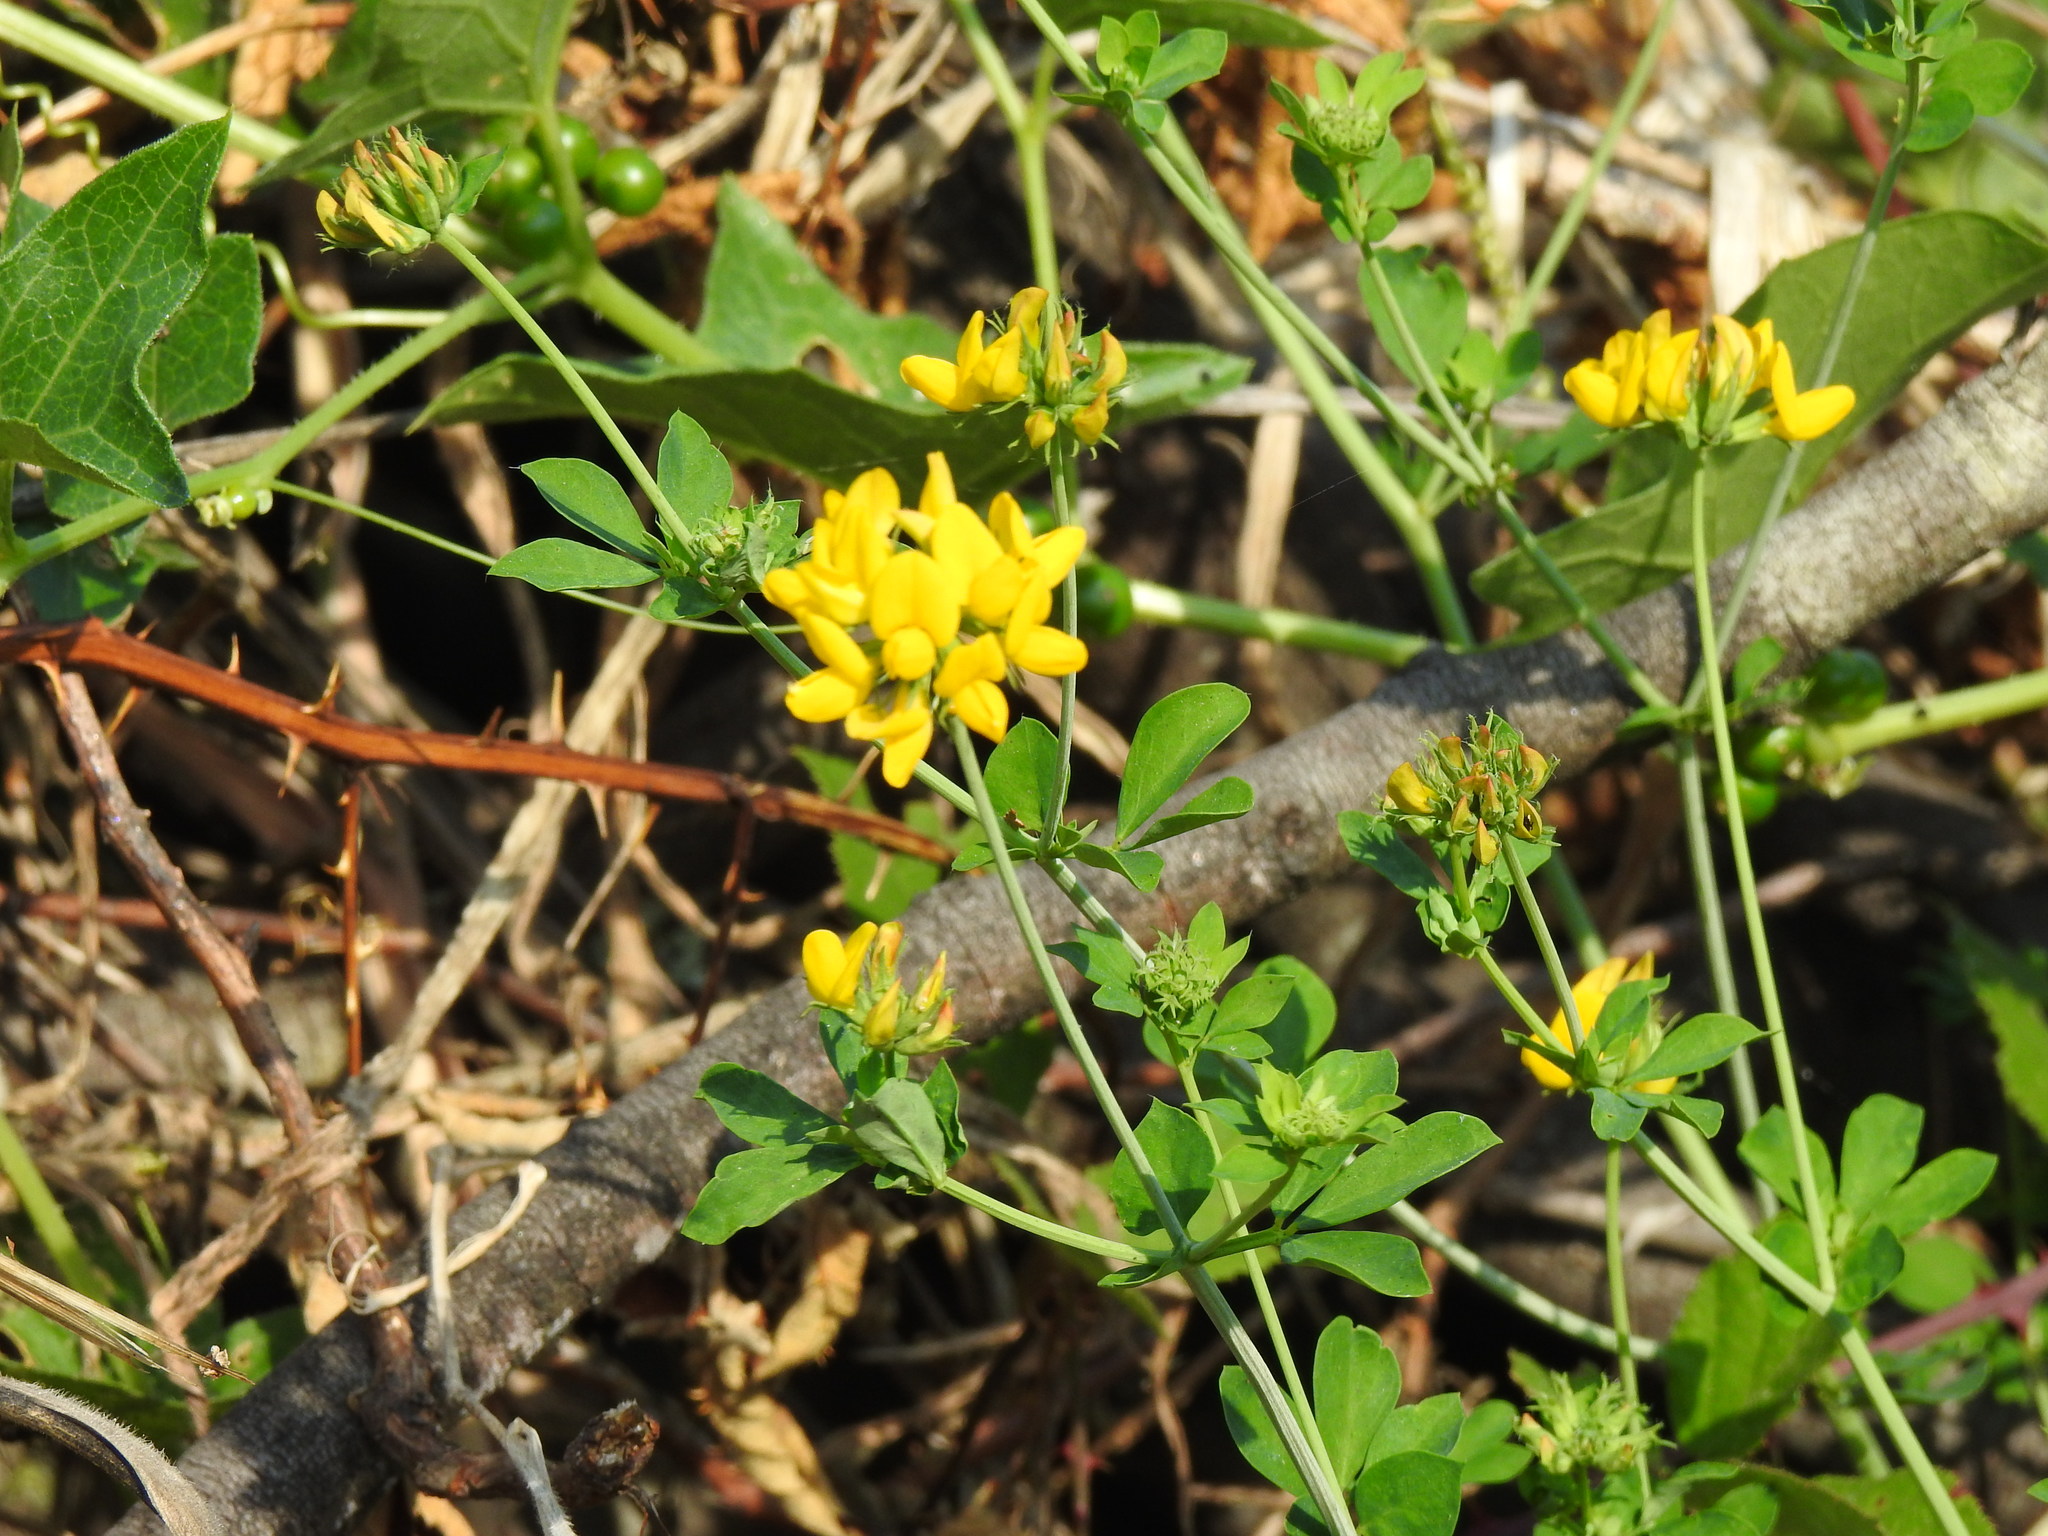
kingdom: Plantae
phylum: Tracheophyta
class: Magnoliopsida
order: Fabales
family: Fabaceae
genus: Lotus
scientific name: Lotus pedunculatus
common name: Greater birdsfoot-trefoil
